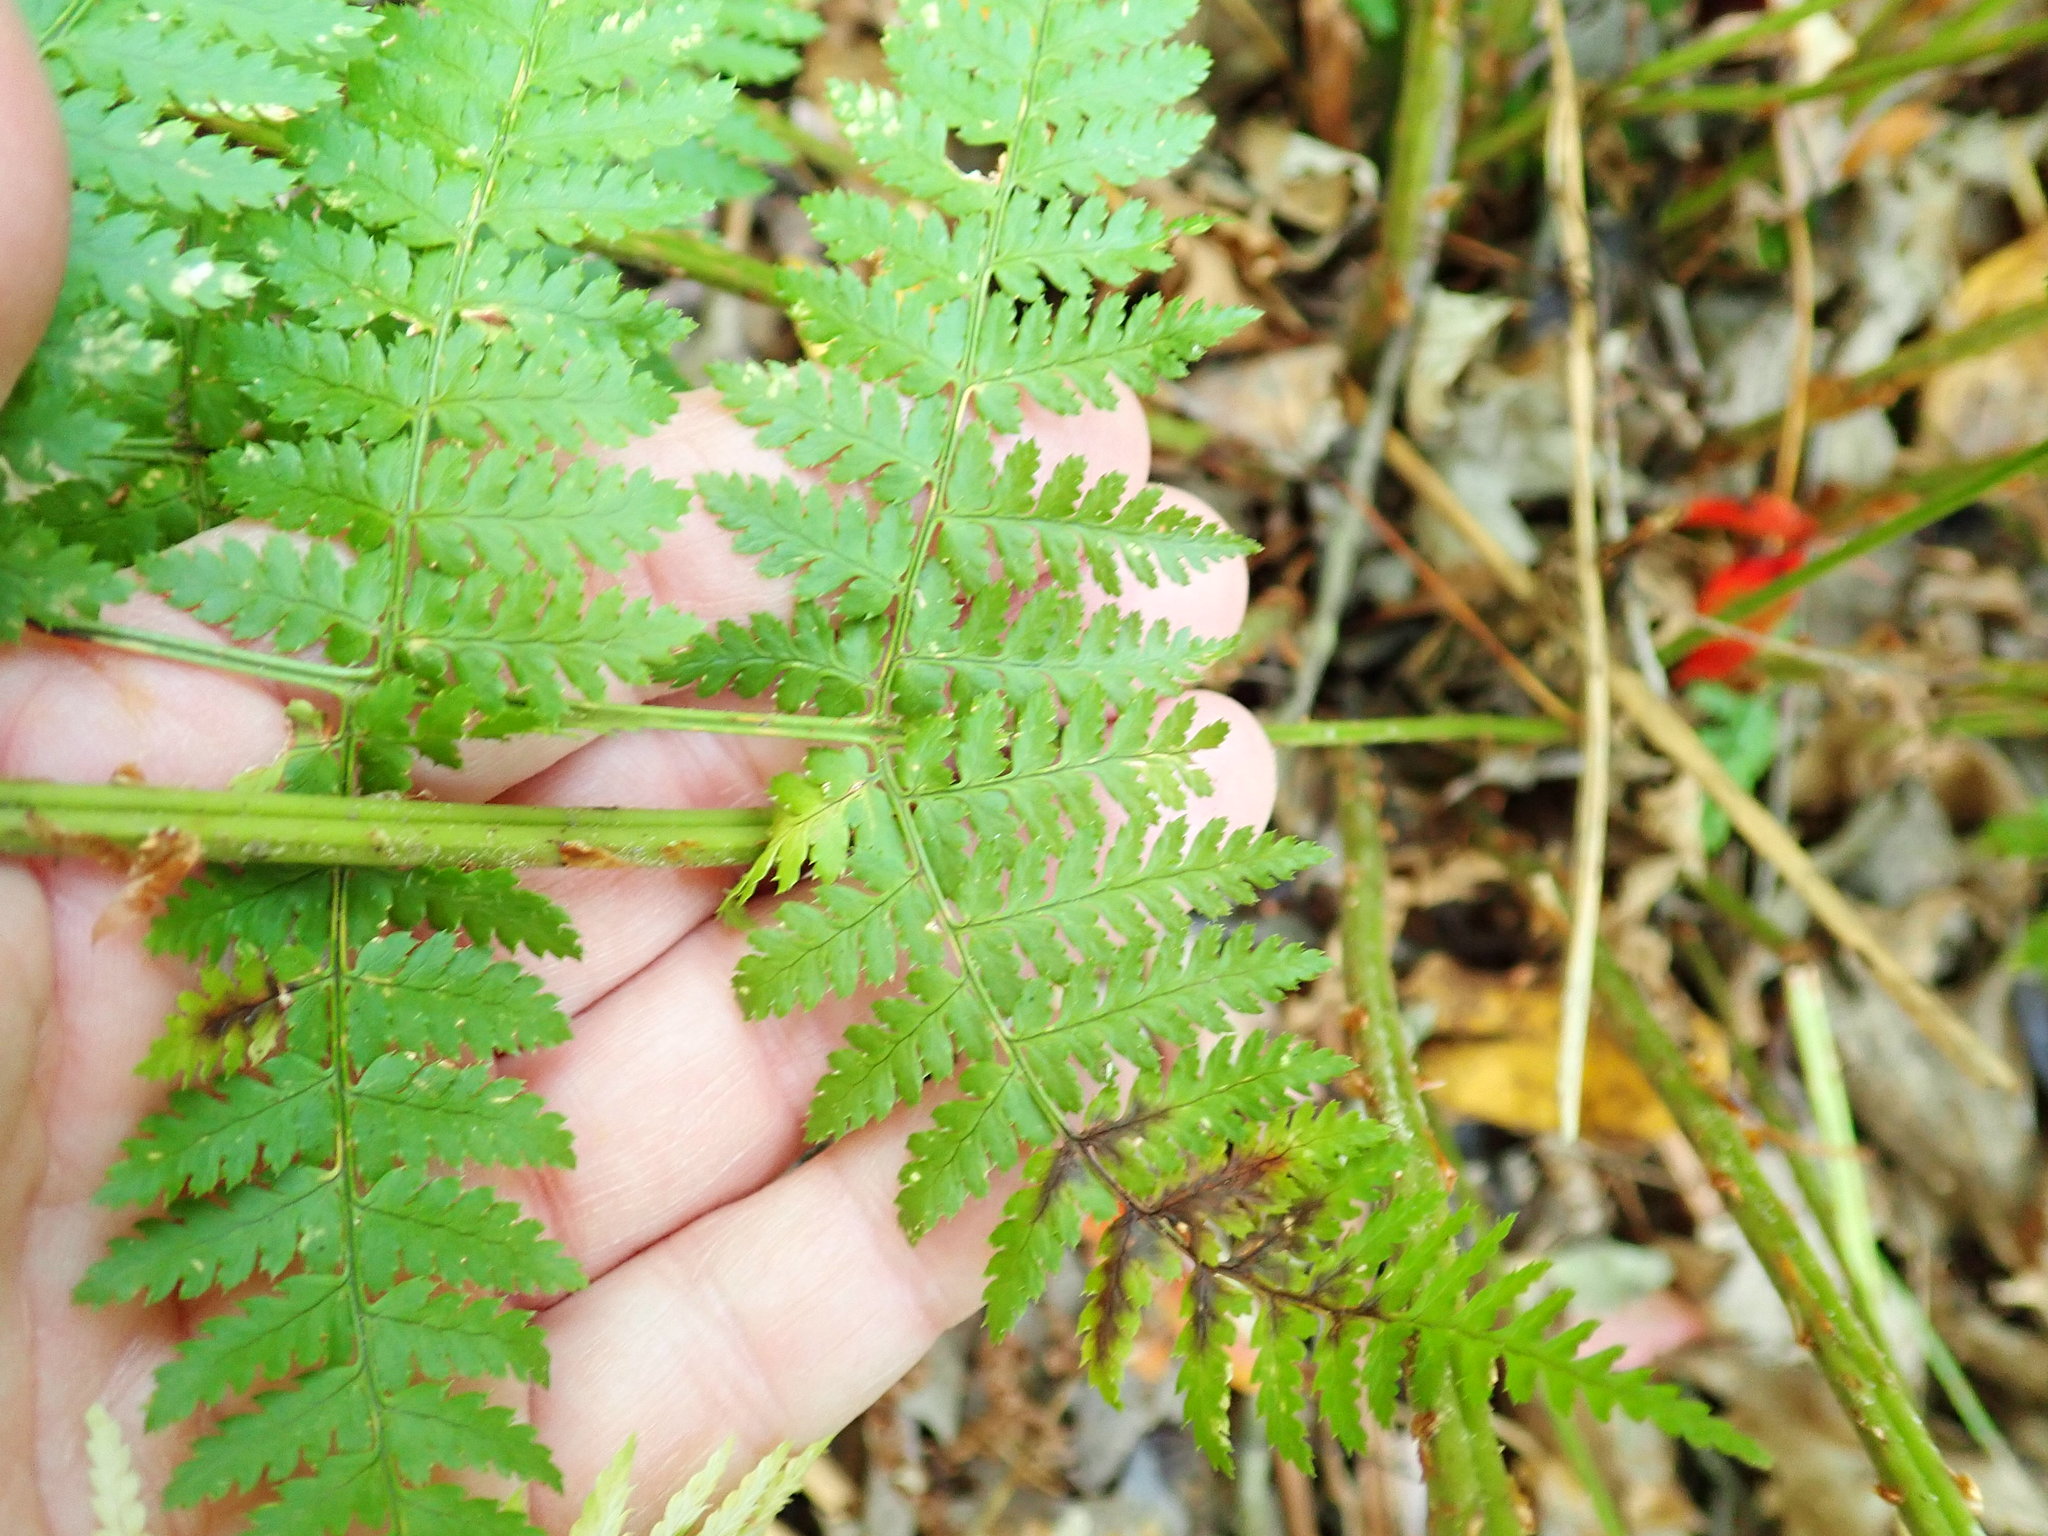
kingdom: Plantae
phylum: Tracheophyta
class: Polypodiopsida
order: Polypodiales
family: Dryopteridaceae
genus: Dryopteris
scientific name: Dryopteris intermedia
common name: Evergreen wood fern
